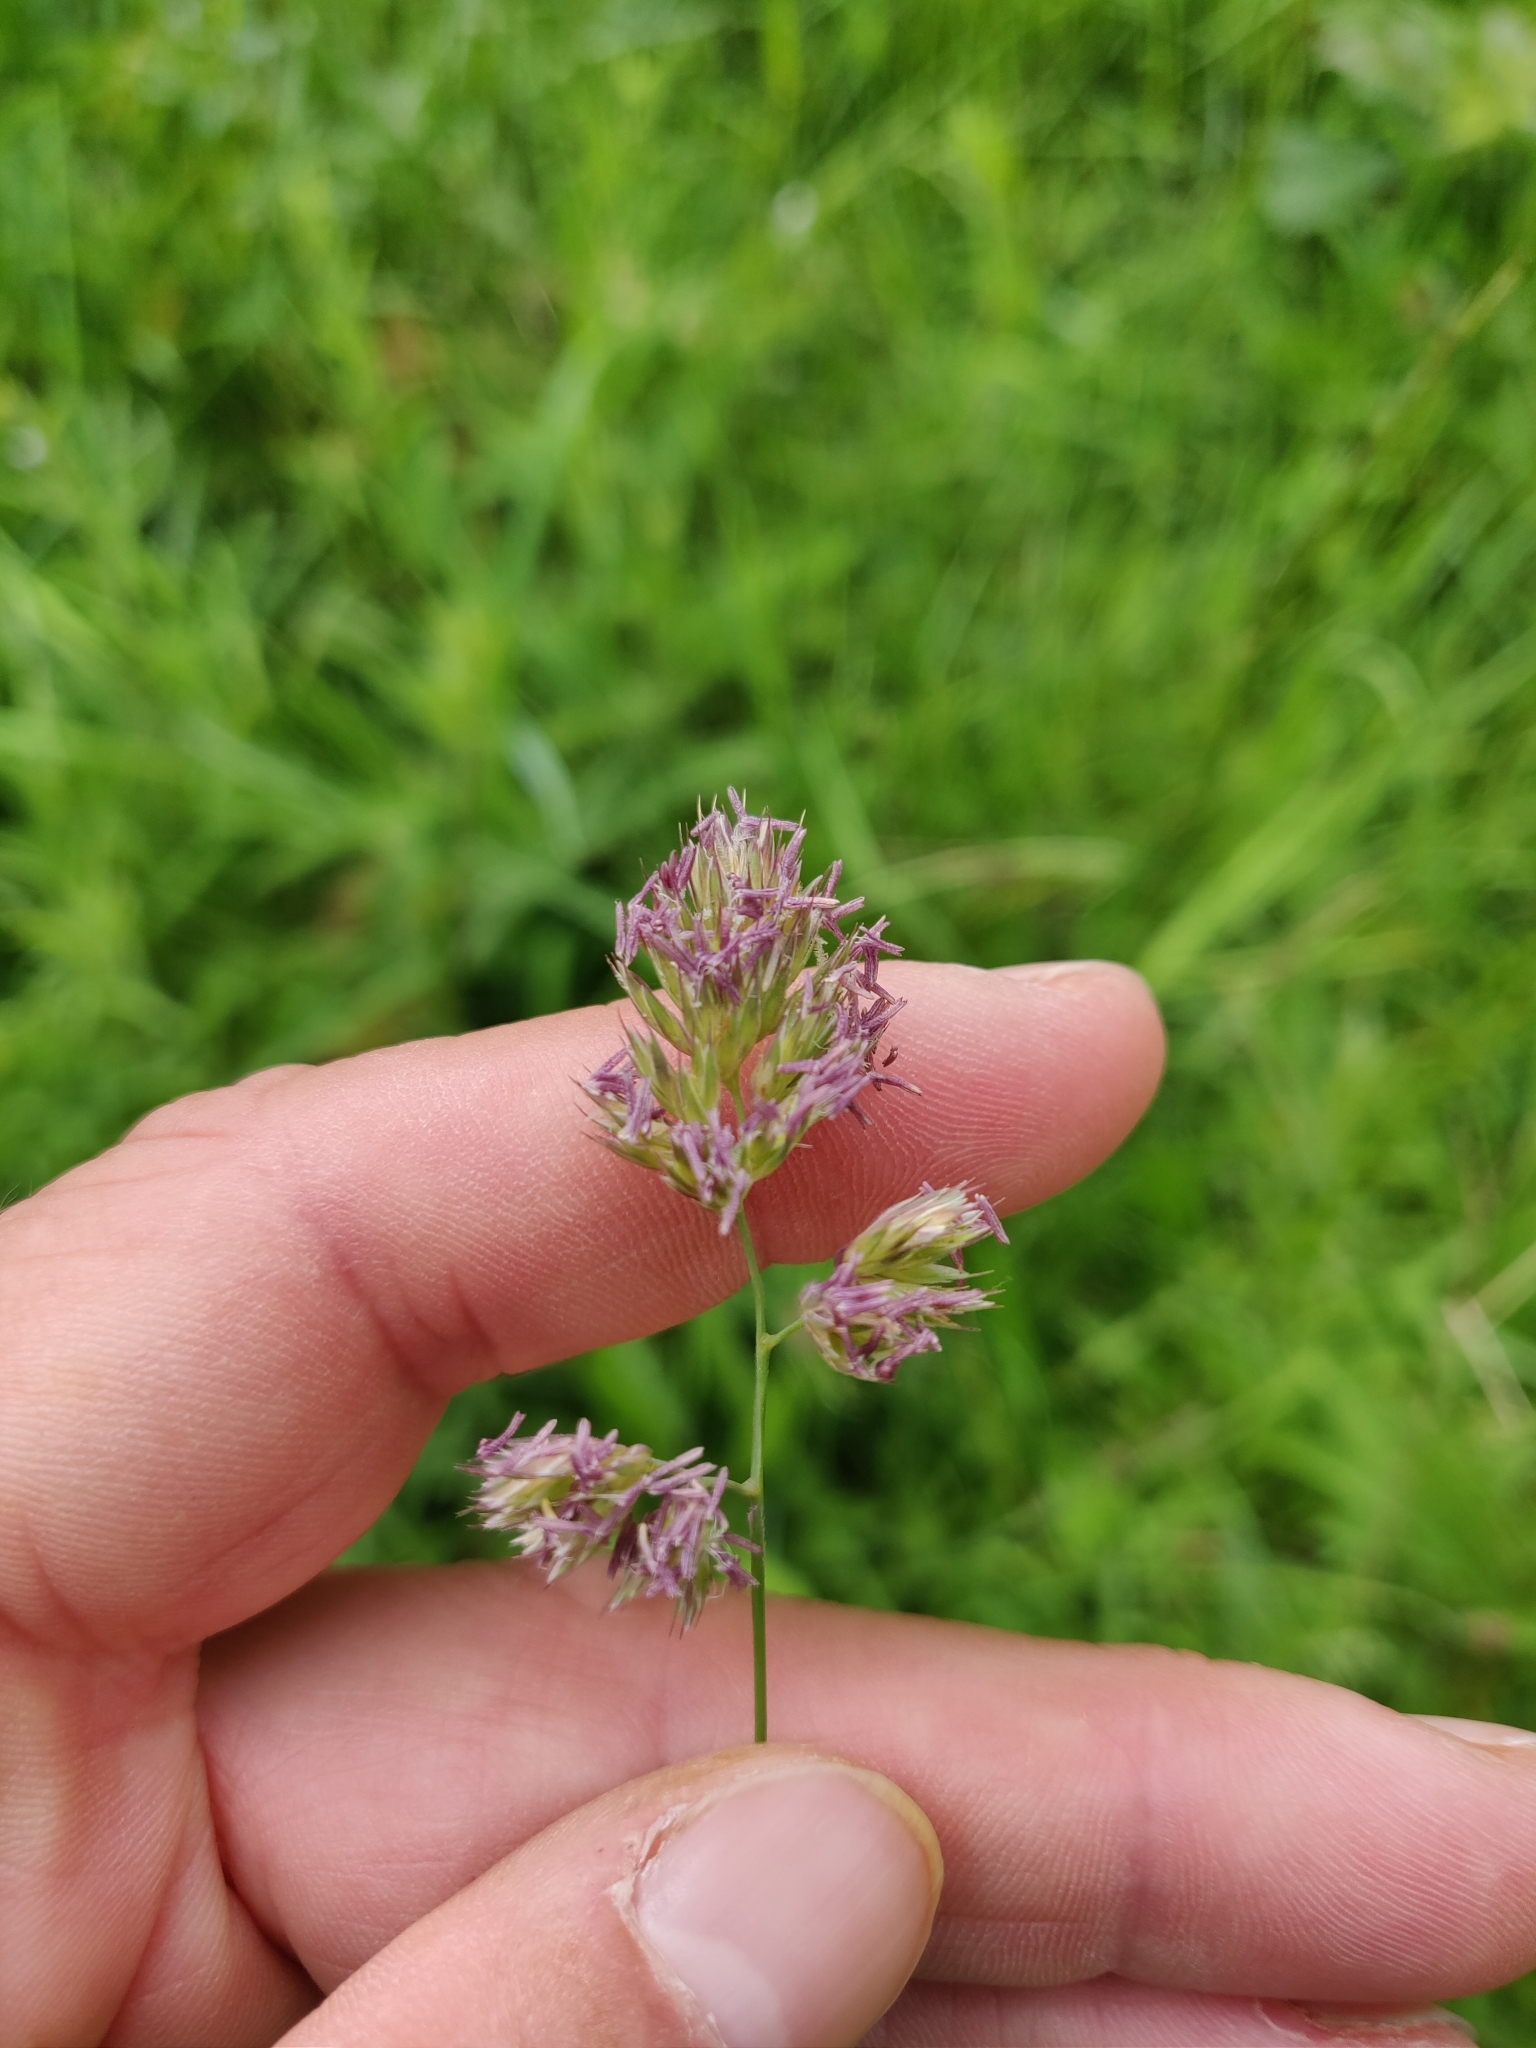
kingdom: Plantae
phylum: Tracheophyta
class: Liliopsida
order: Poales
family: Poaceae
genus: Dactylis
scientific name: Dactylis glomerata
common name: Orchardgrass
